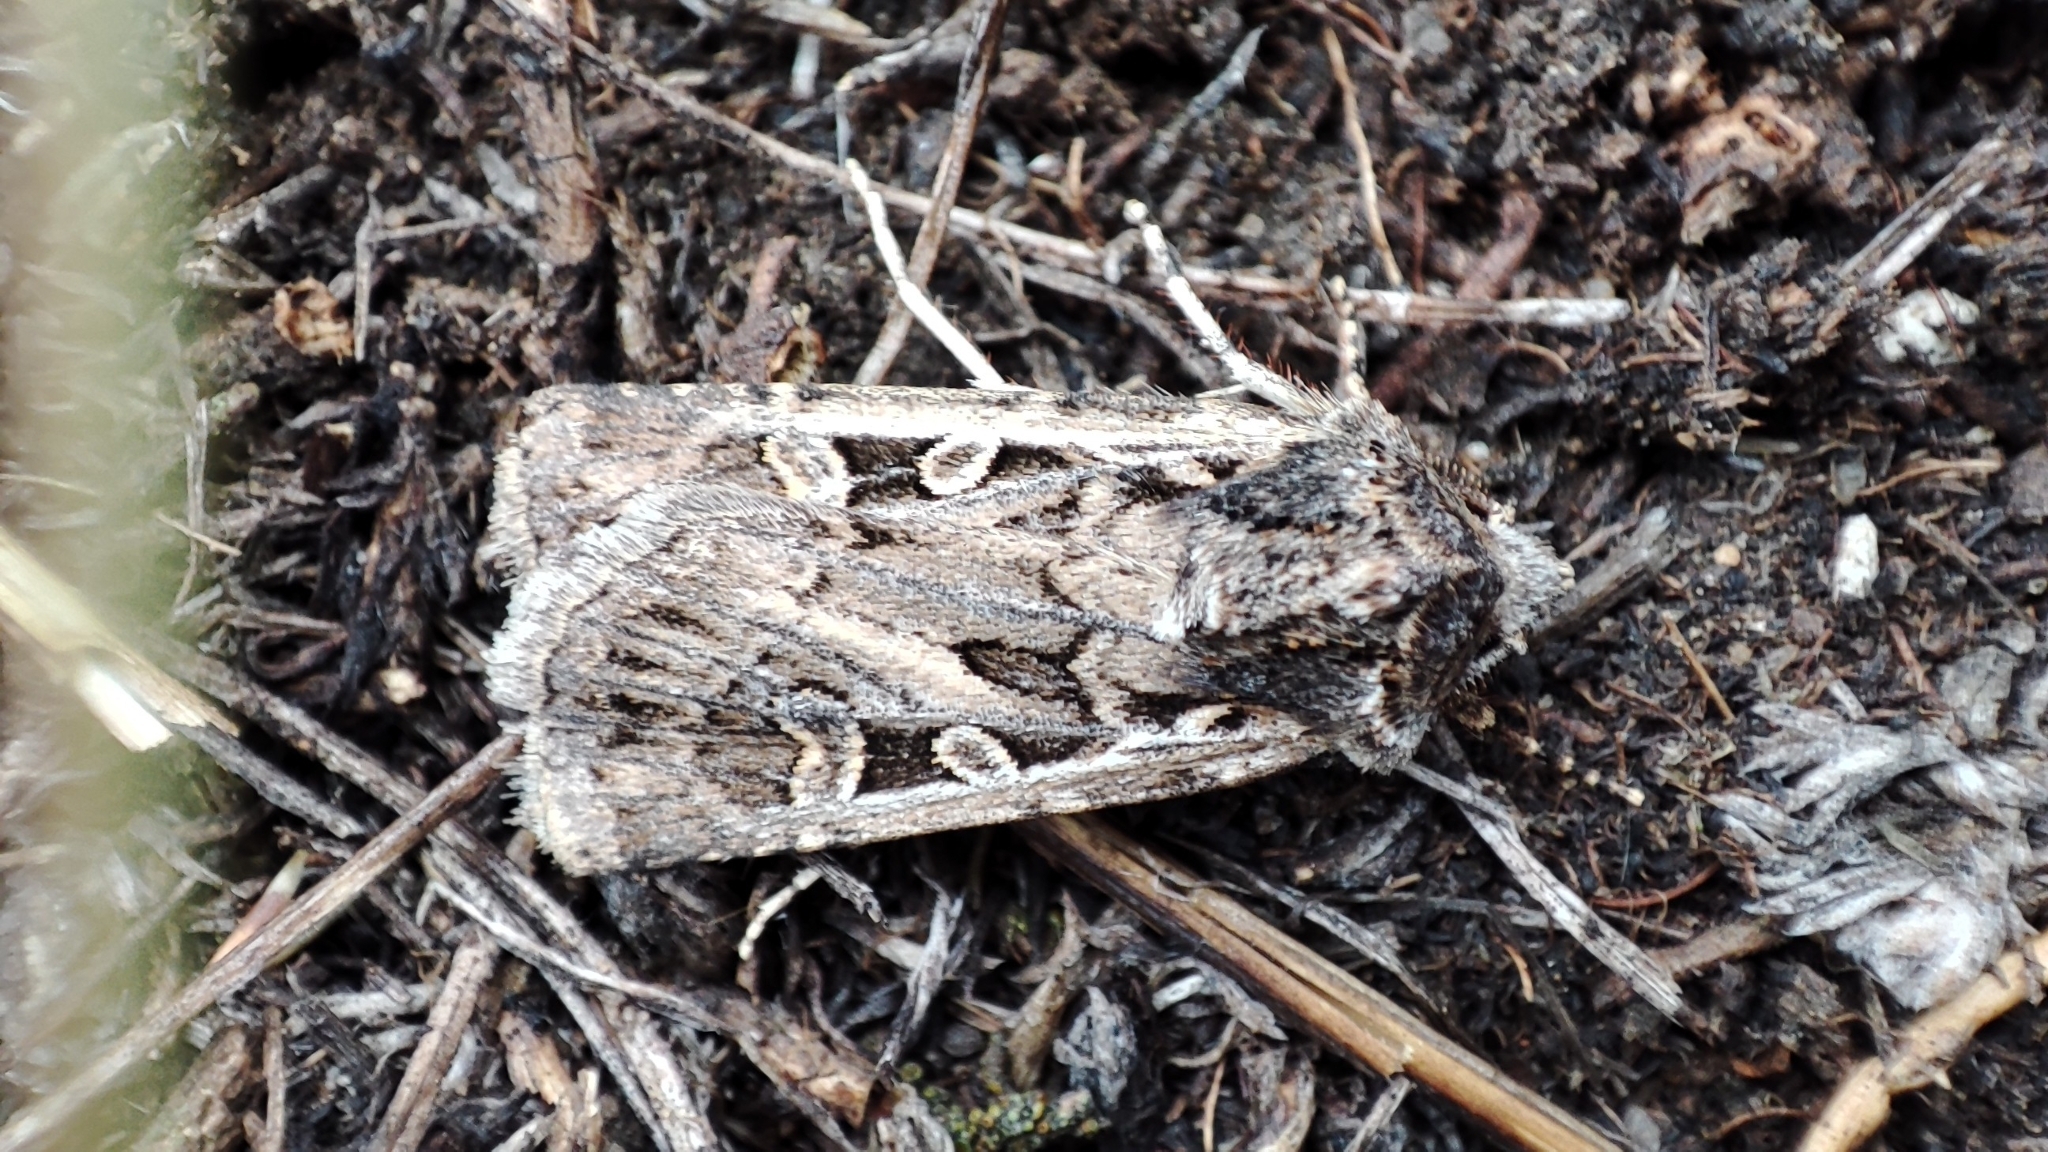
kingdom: Animalia
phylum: Arthropoda
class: Insecta
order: Lepidoptera
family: Noctuidae
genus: Euxoa
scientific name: Euxoa distinguenda
